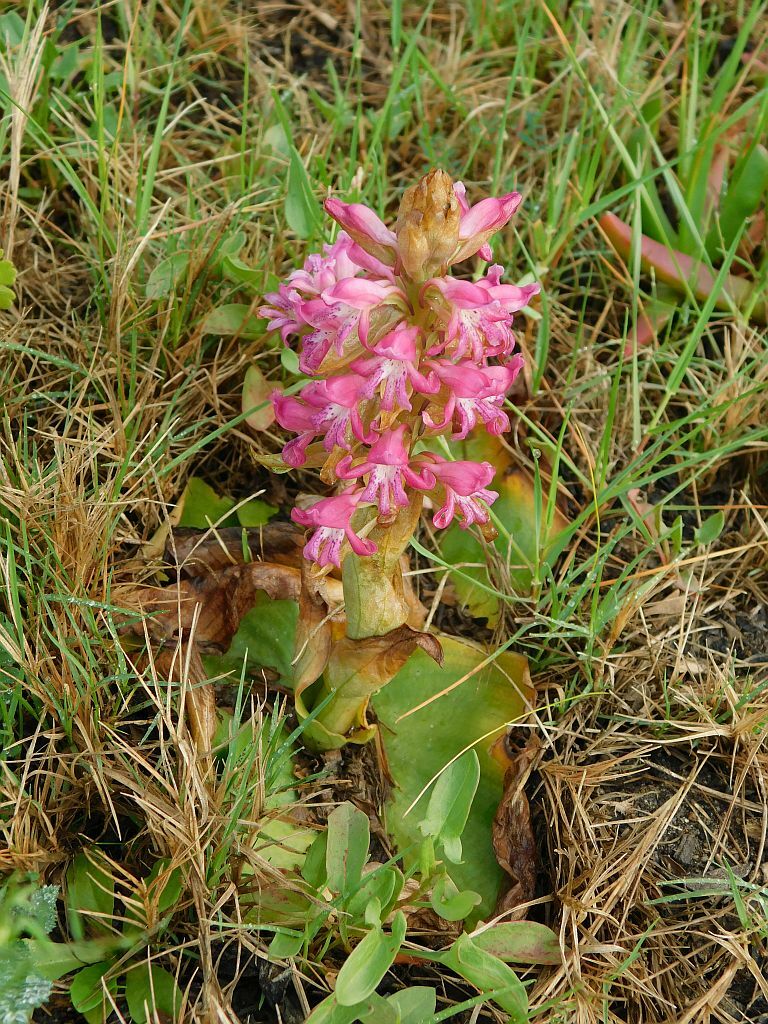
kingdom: Plantae
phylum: Tracheophyta
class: Liliopsida
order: Asparagales
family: Orchidaceae
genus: Satyrium
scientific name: Satyrium erectum
